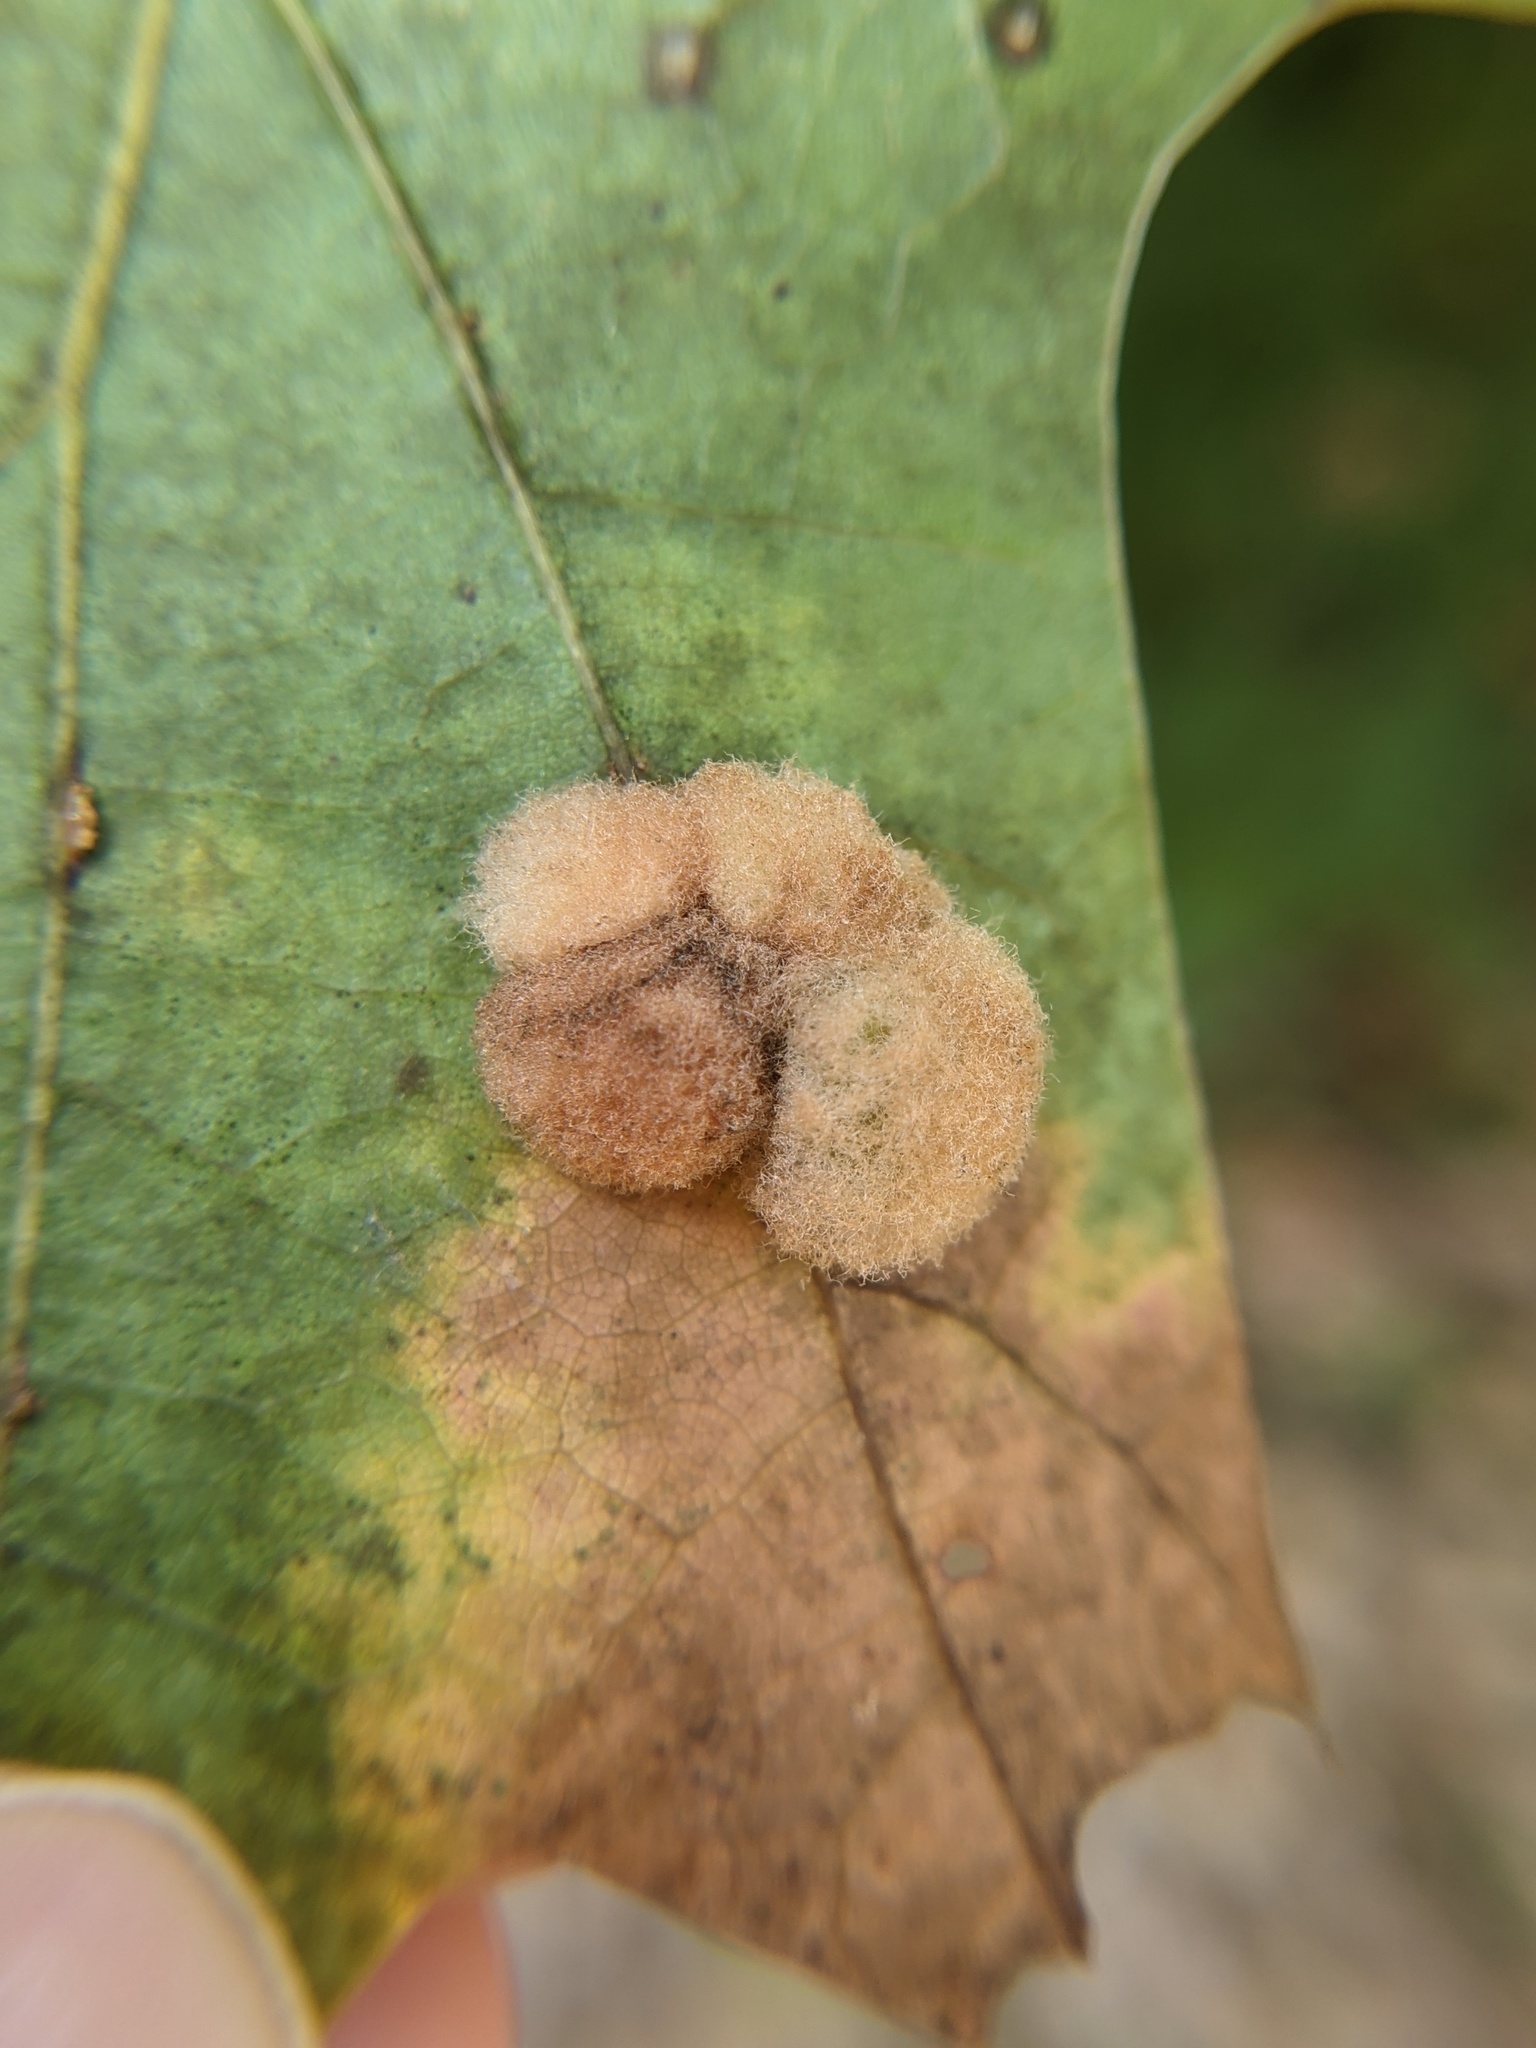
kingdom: Animalia
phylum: Arthropoda
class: Insecta
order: Hymenoptera
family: Cynipidae
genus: Callirhytis
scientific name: Callirhytis
